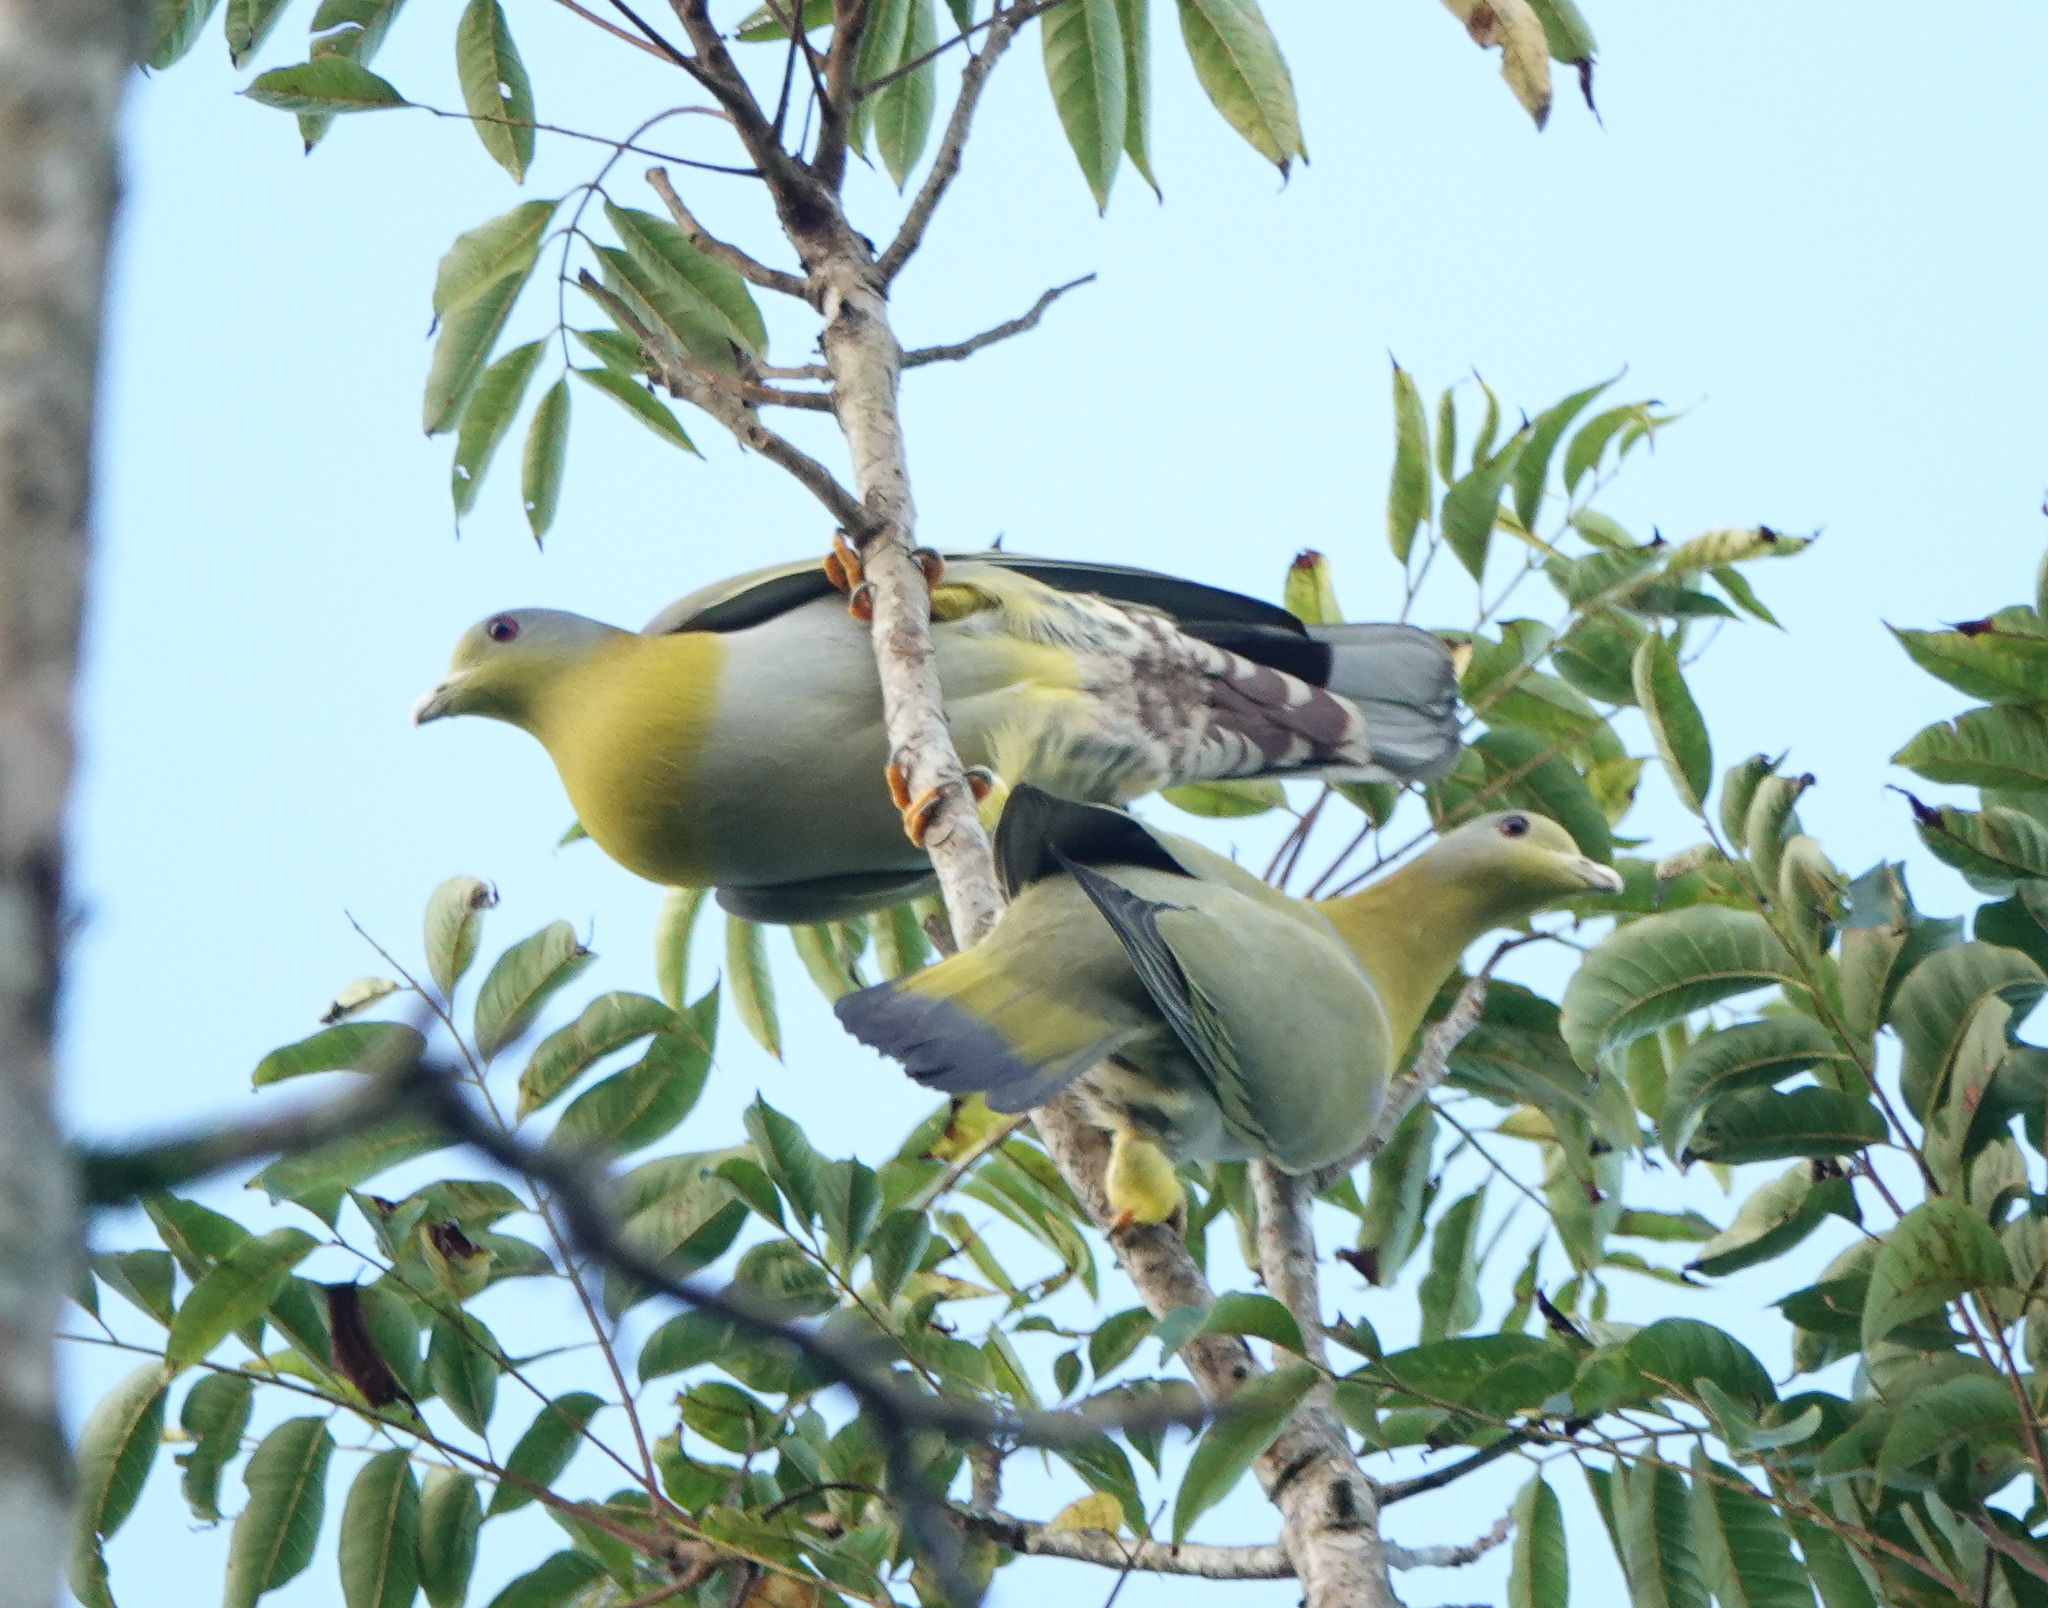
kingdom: Animalia
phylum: Chordata
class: Aves
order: Columbiformes
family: Columbidae
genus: Treron
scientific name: Treron phoenicopterus
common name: Yellow-footed green pigeon
